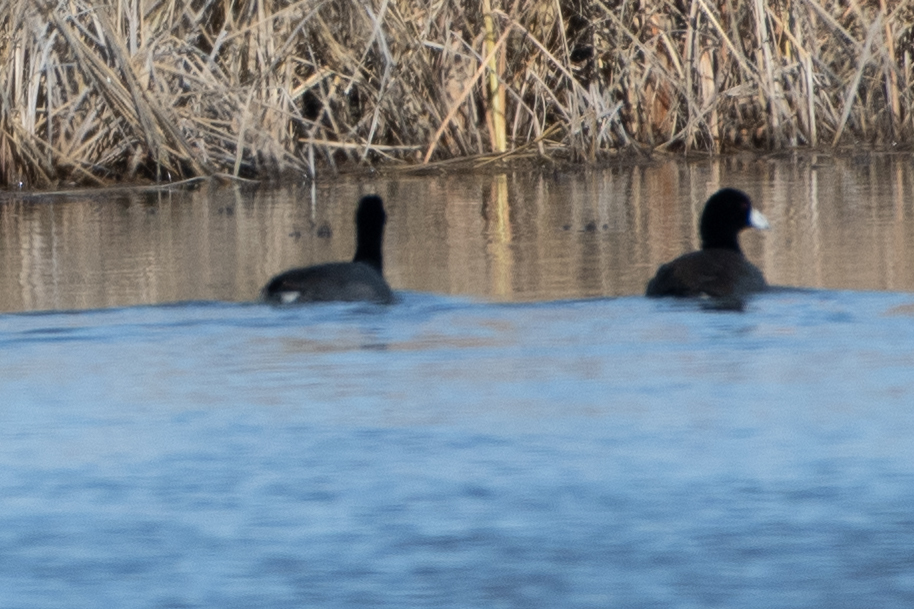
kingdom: Animalia
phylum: Chordata
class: Aves
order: Gruiformes
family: Rallidae
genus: Fulica
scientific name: Fulica americana
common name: American coot
